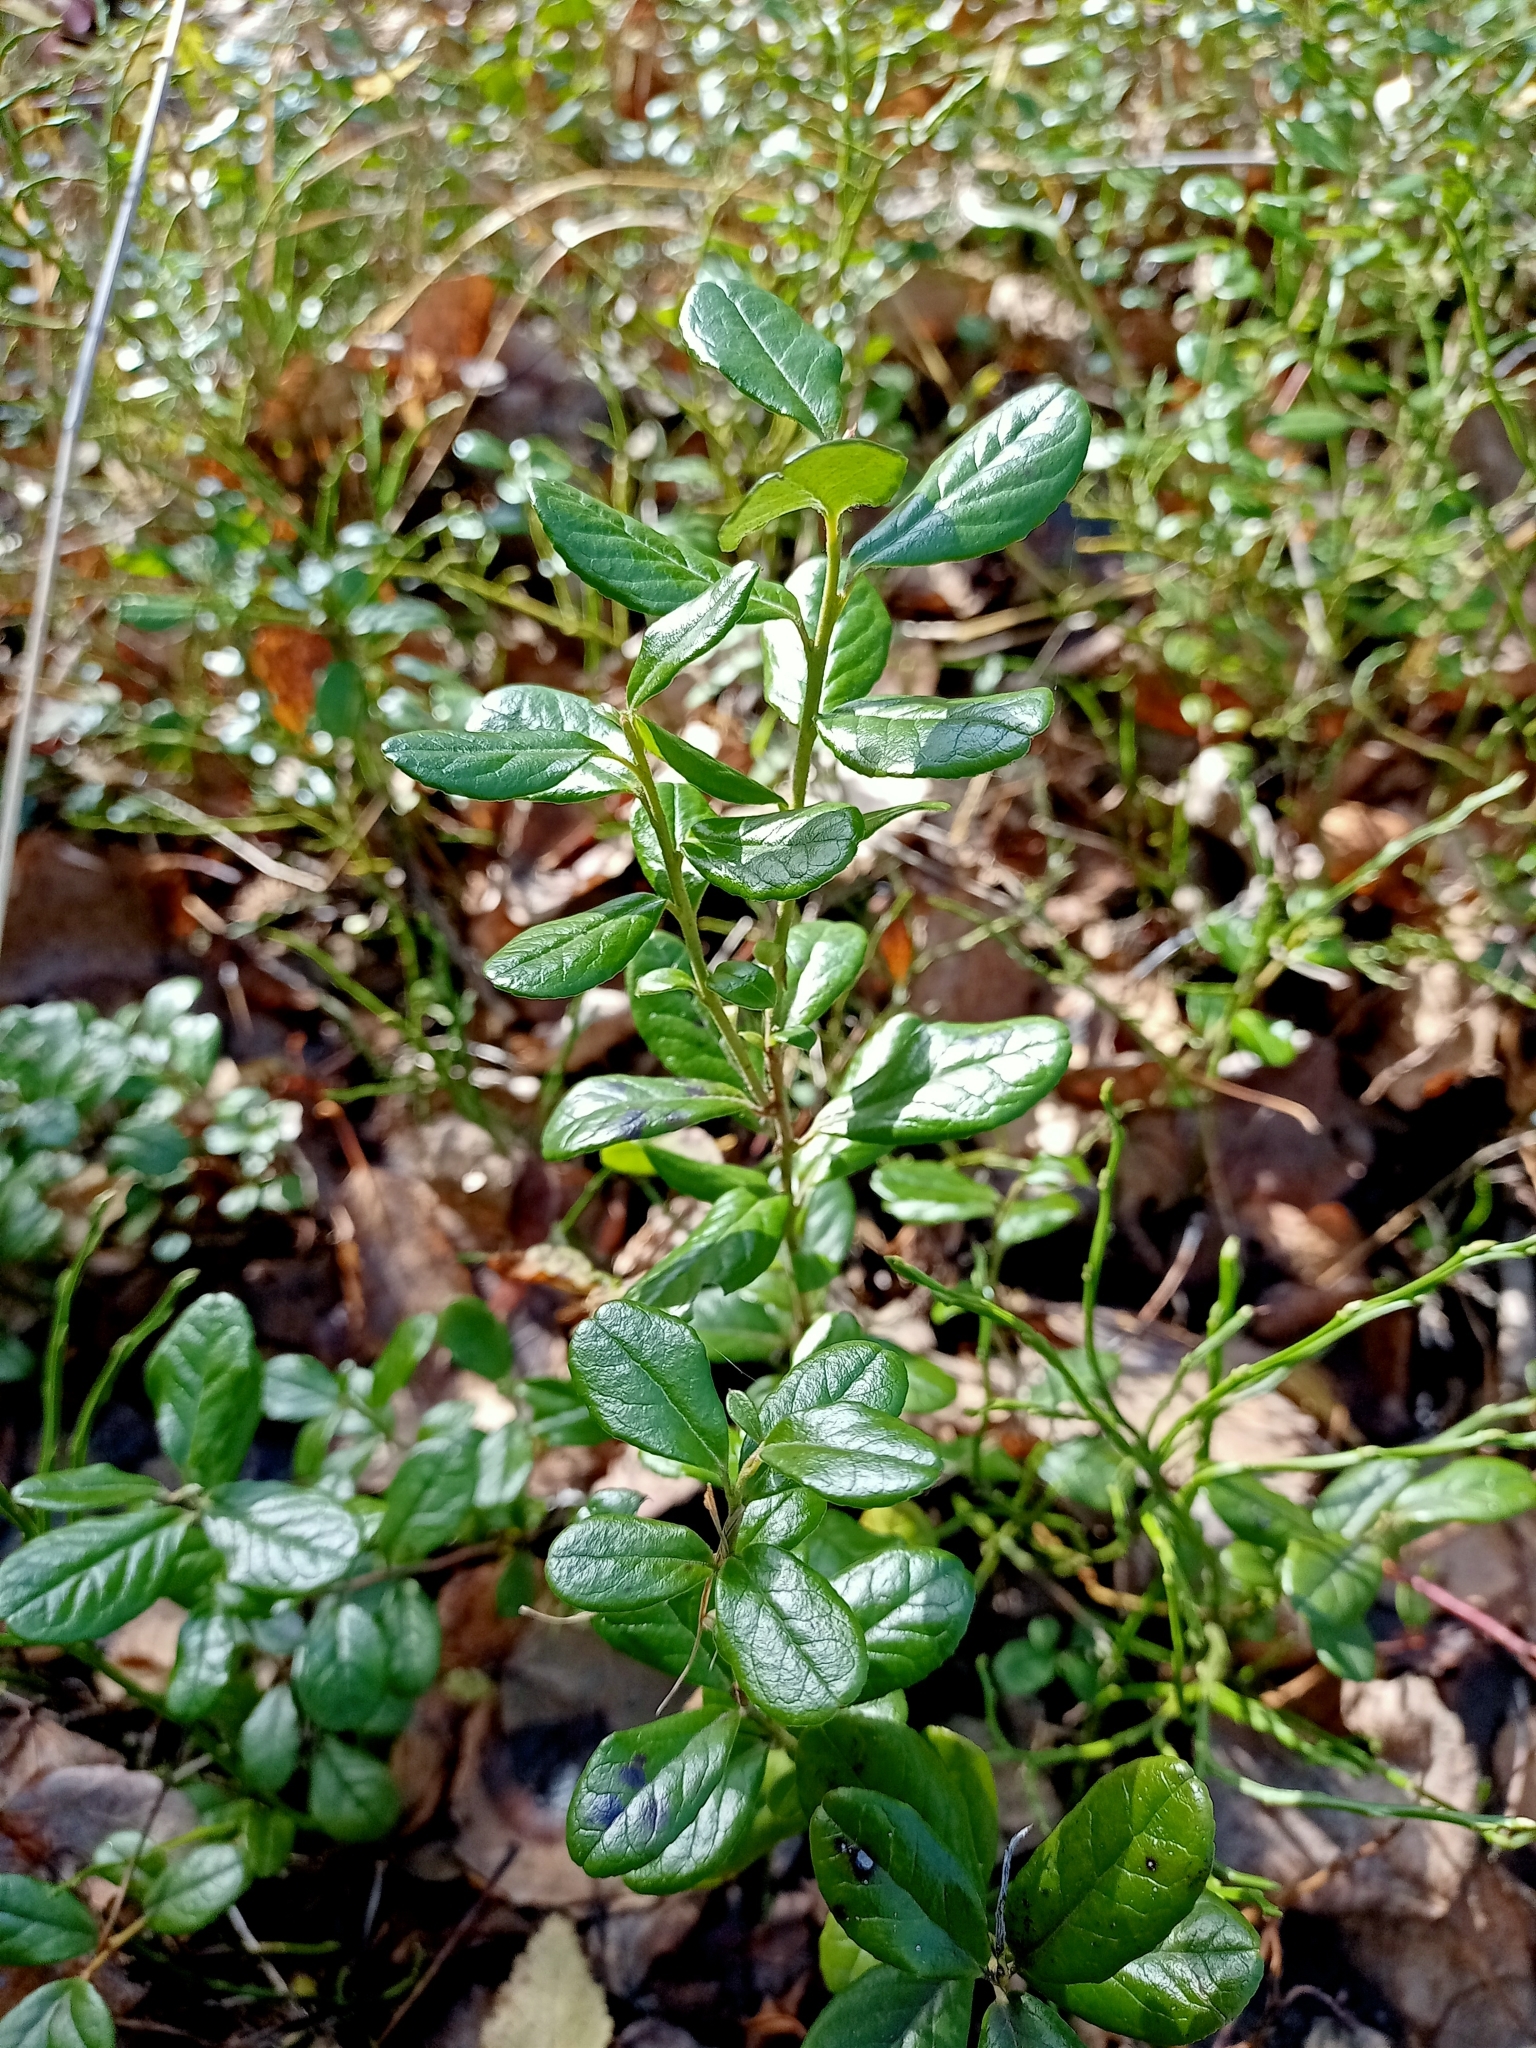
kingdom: Plantae
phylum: Tracheophyta
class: Magnoliopsida
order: Ericales
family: Ericaceae
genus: Vaccinium
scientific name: Vaccinium vitis-idaea
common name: Cowberry
